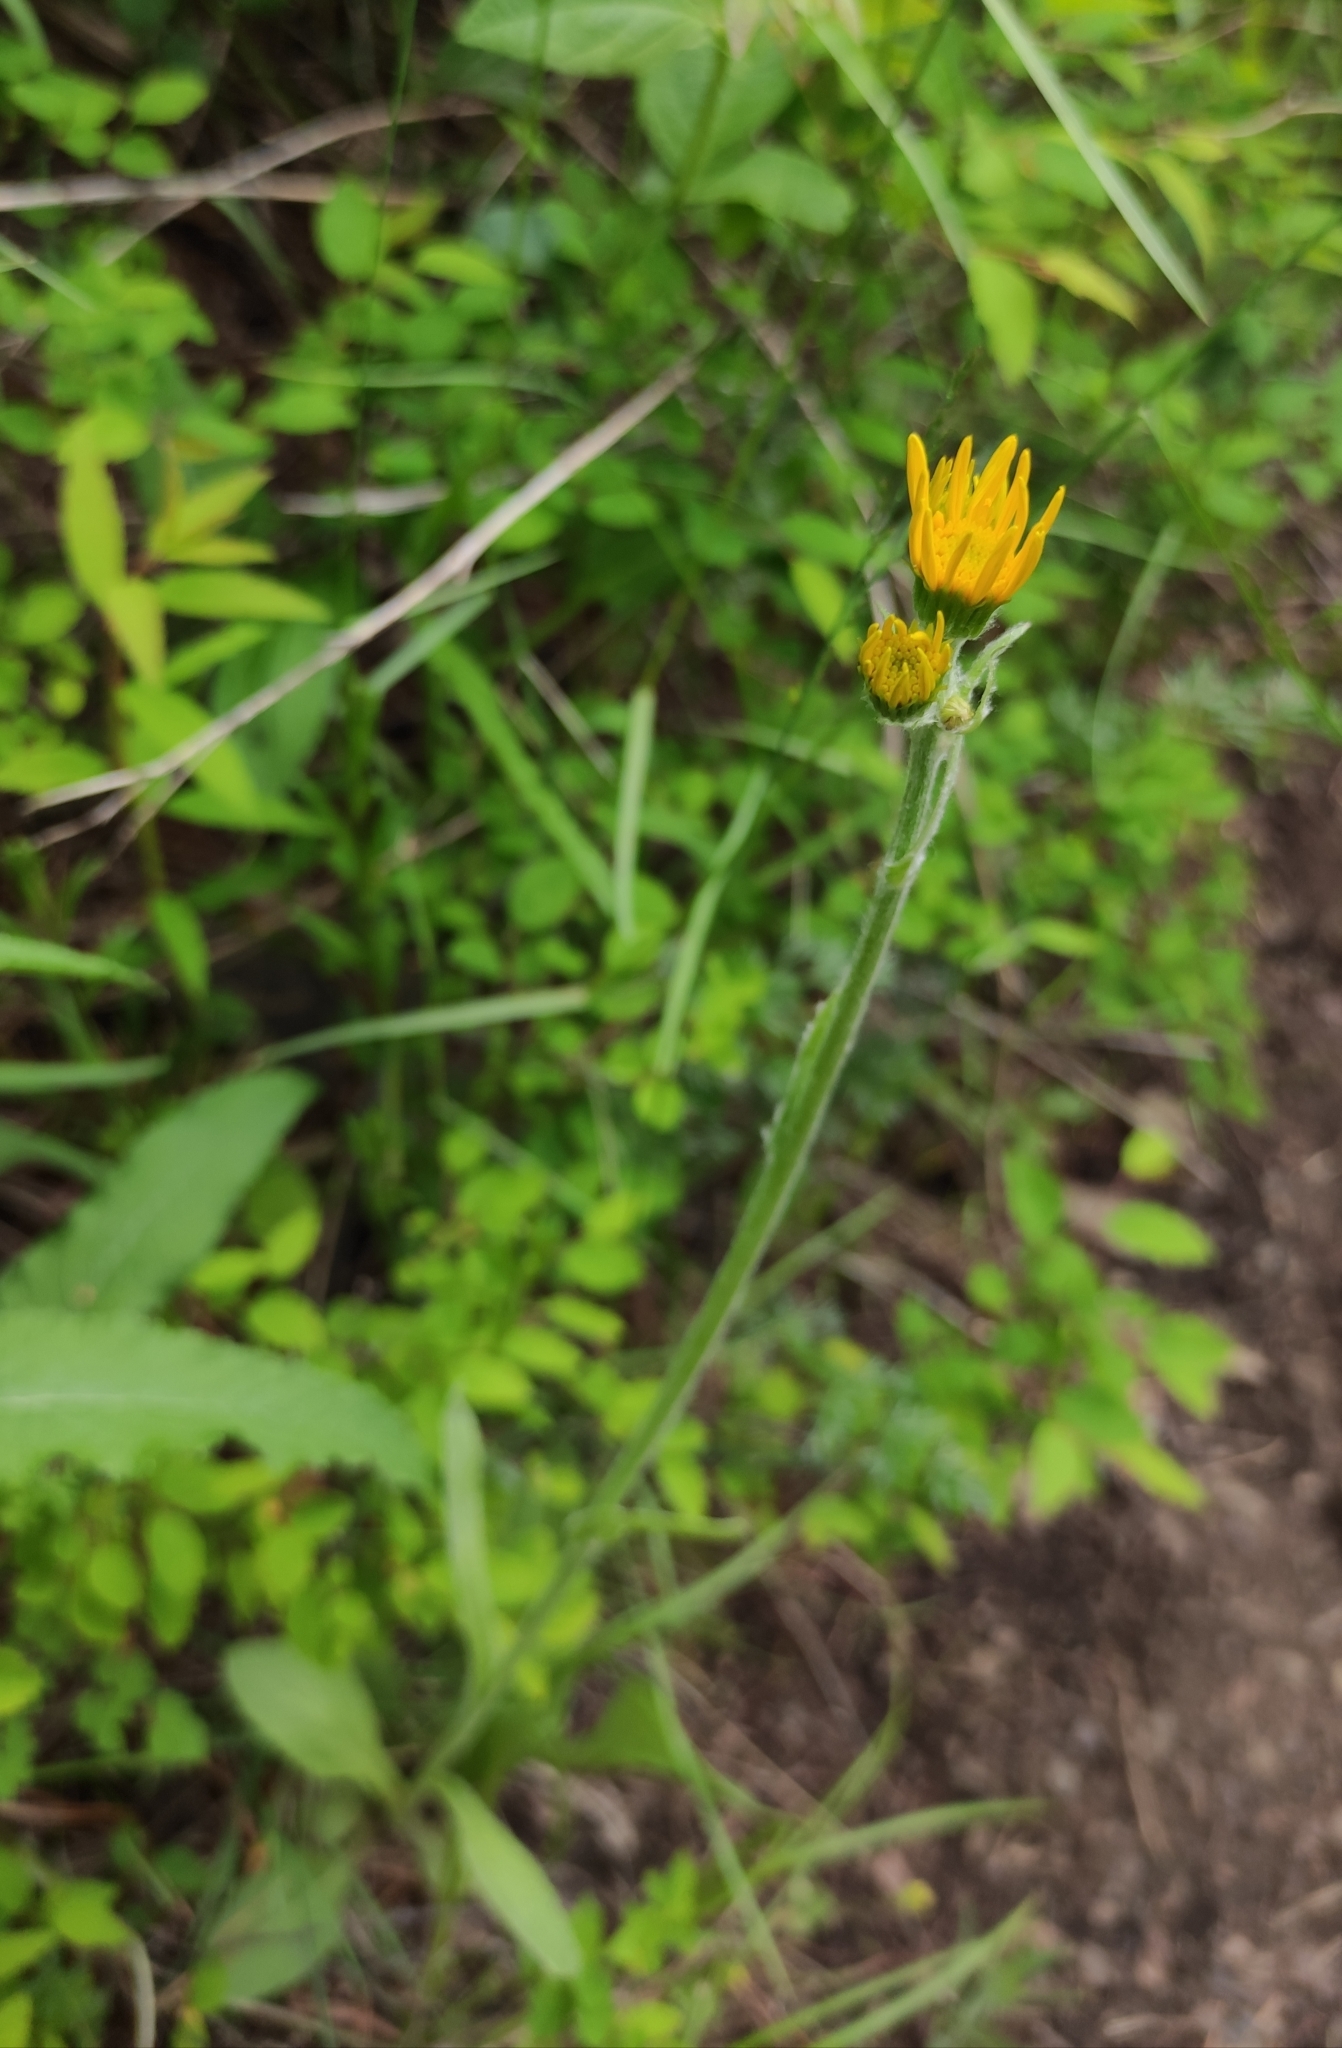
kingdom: Plantae
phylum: Tracheophyta
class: Magnoliopsida
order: Asterales
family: Asteraceae
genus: Tephroseris
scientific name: Tephroseris integrifolia
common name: Field fleawort
